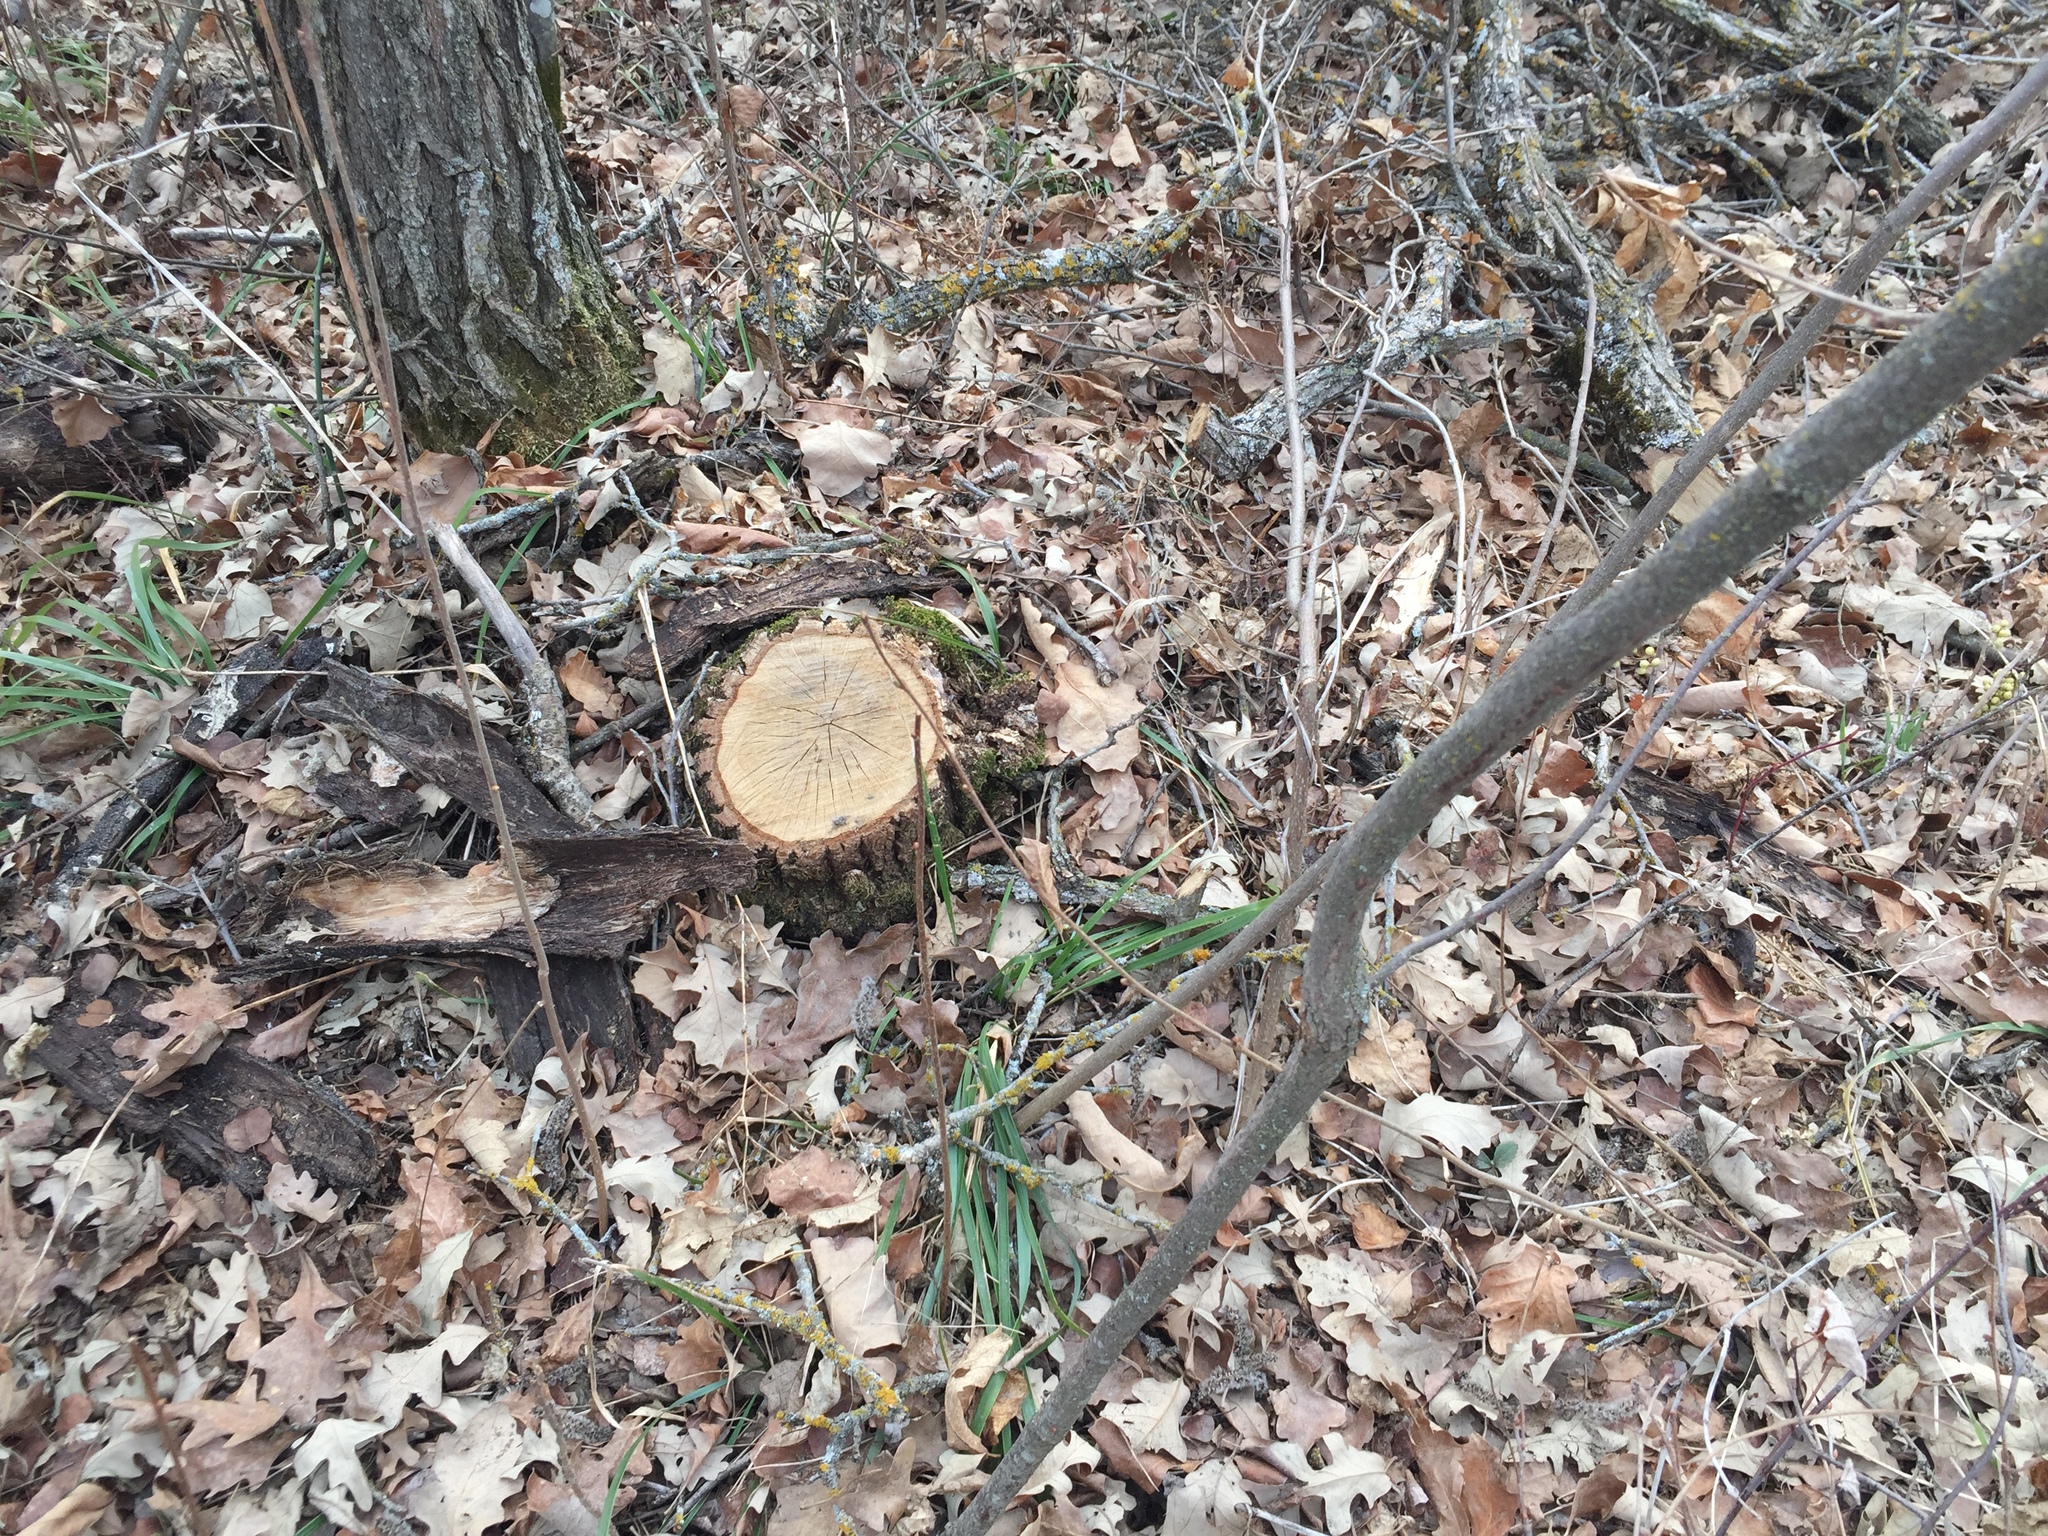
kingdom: Plantae
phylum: Tracheophyta
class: Magnoliopsida
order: Fagales
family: Fagaceae
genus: Quercus
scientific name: Quercus macrocarpa
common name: Bur oak
